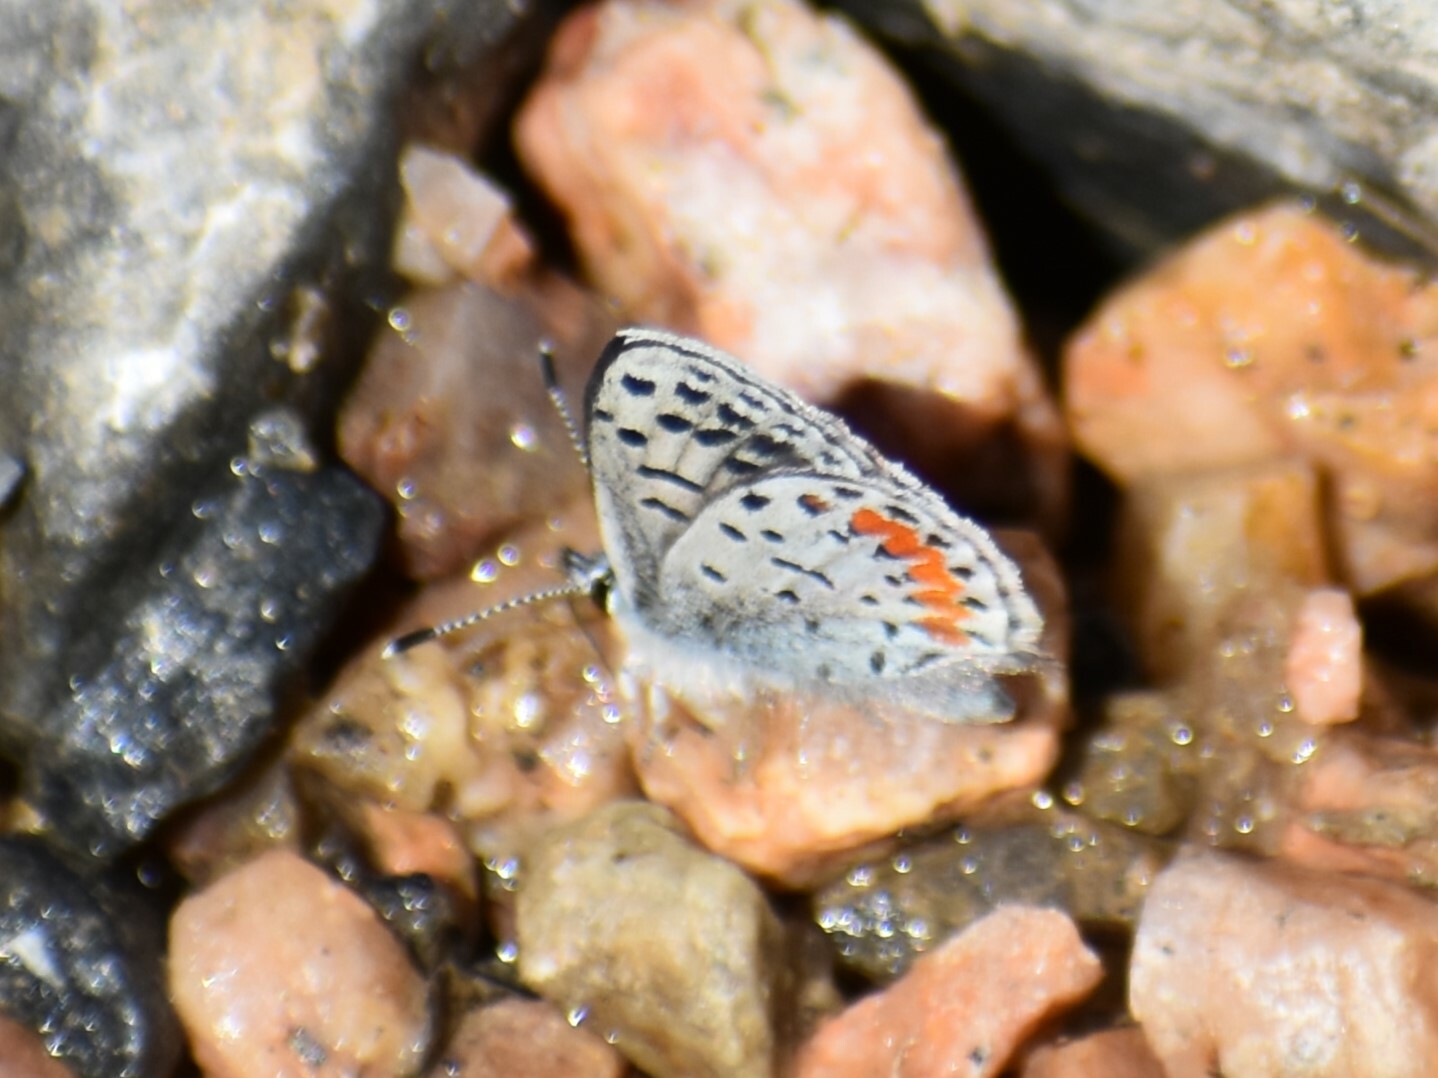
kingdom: Animalia
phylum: Arthropoda
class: Insecta
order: Lepidoptera
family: Lycaenidae
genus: Euphilotes
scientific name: Euphilotes battoides
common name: Square-spotted blue
